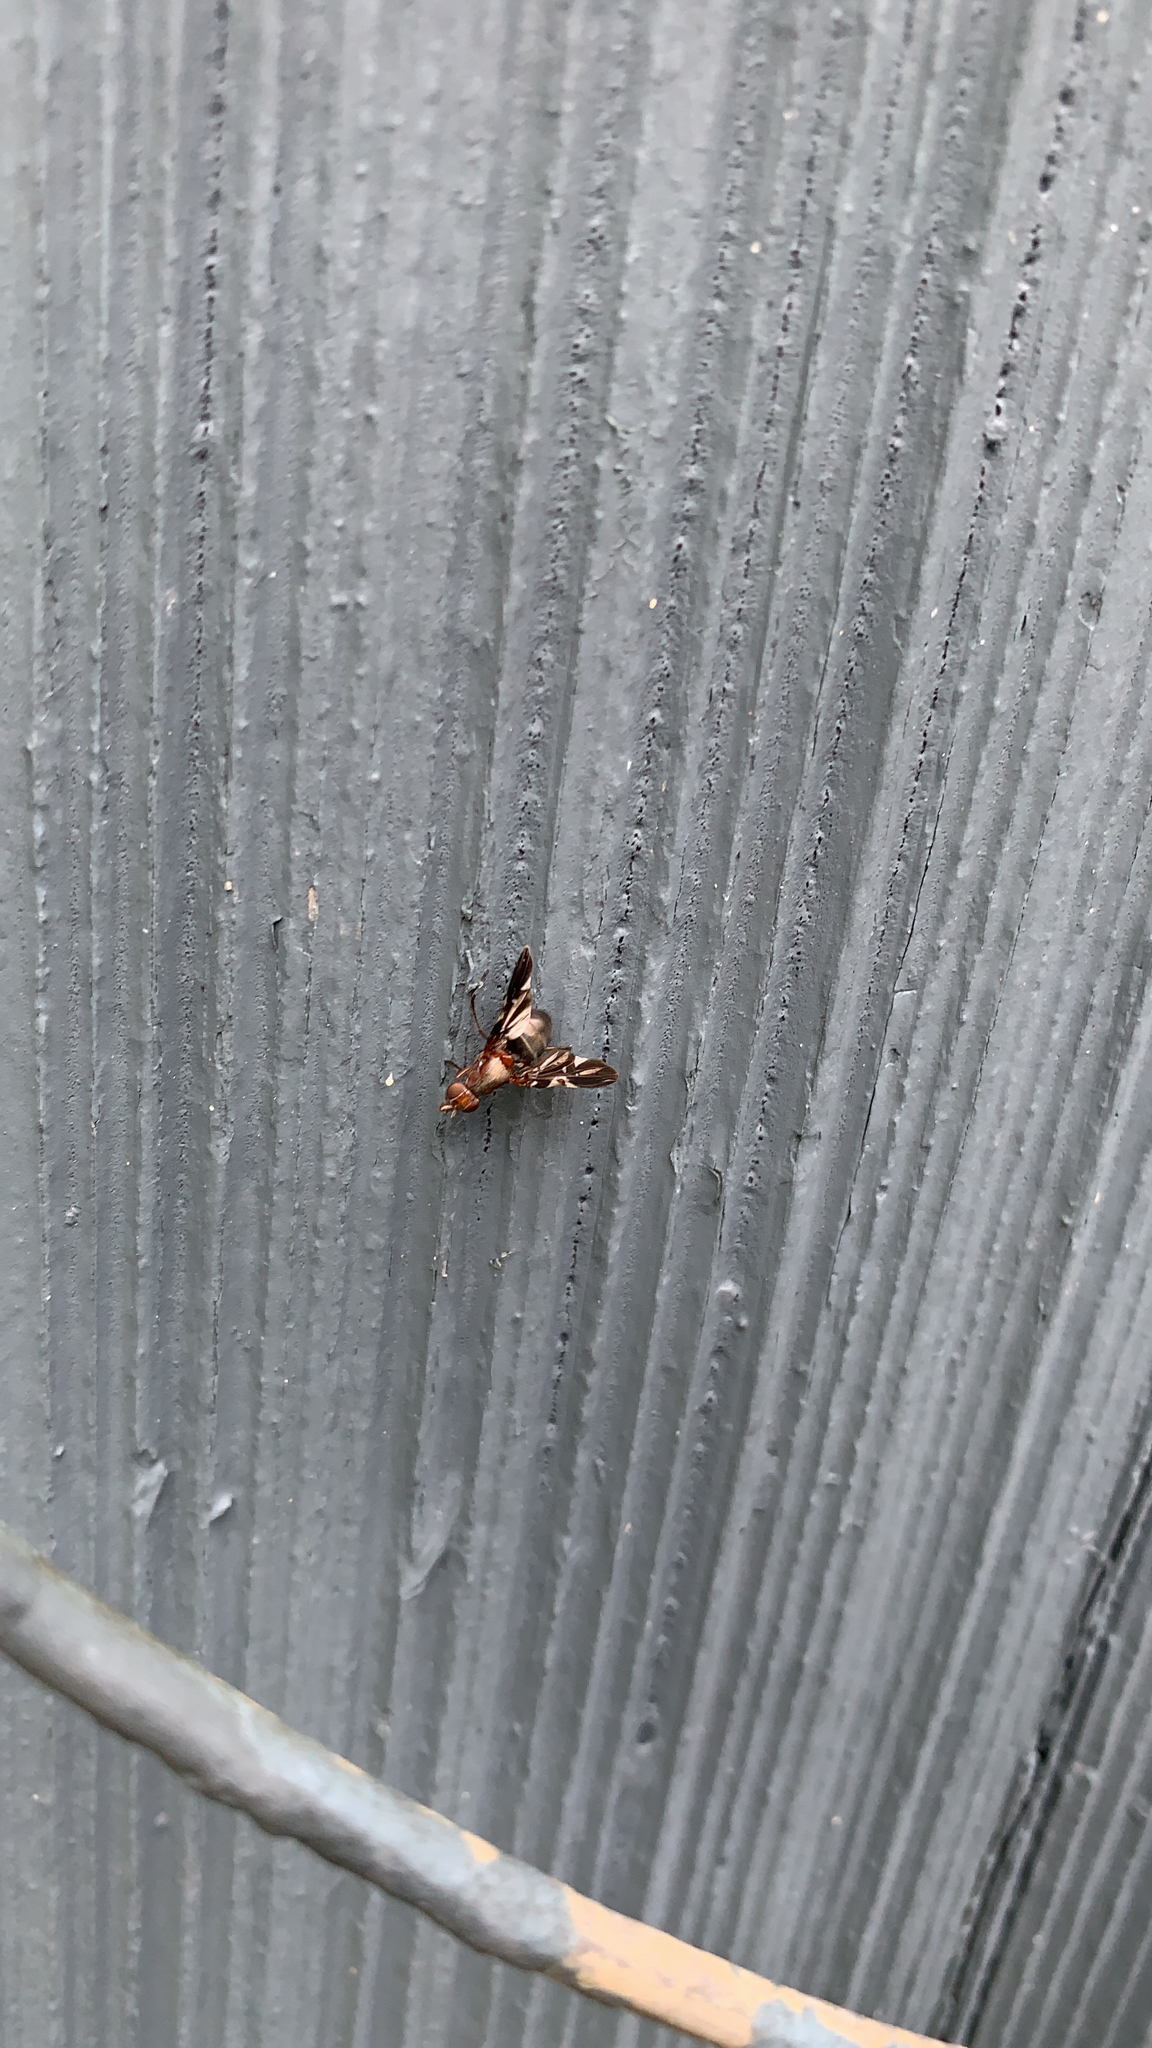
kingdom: Animalia
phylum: Arthropoda
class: Insecta
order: Diptera
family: Ulidiidae
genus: Delphinia
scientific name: Delphinia picta
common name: Common picture-winged fly
